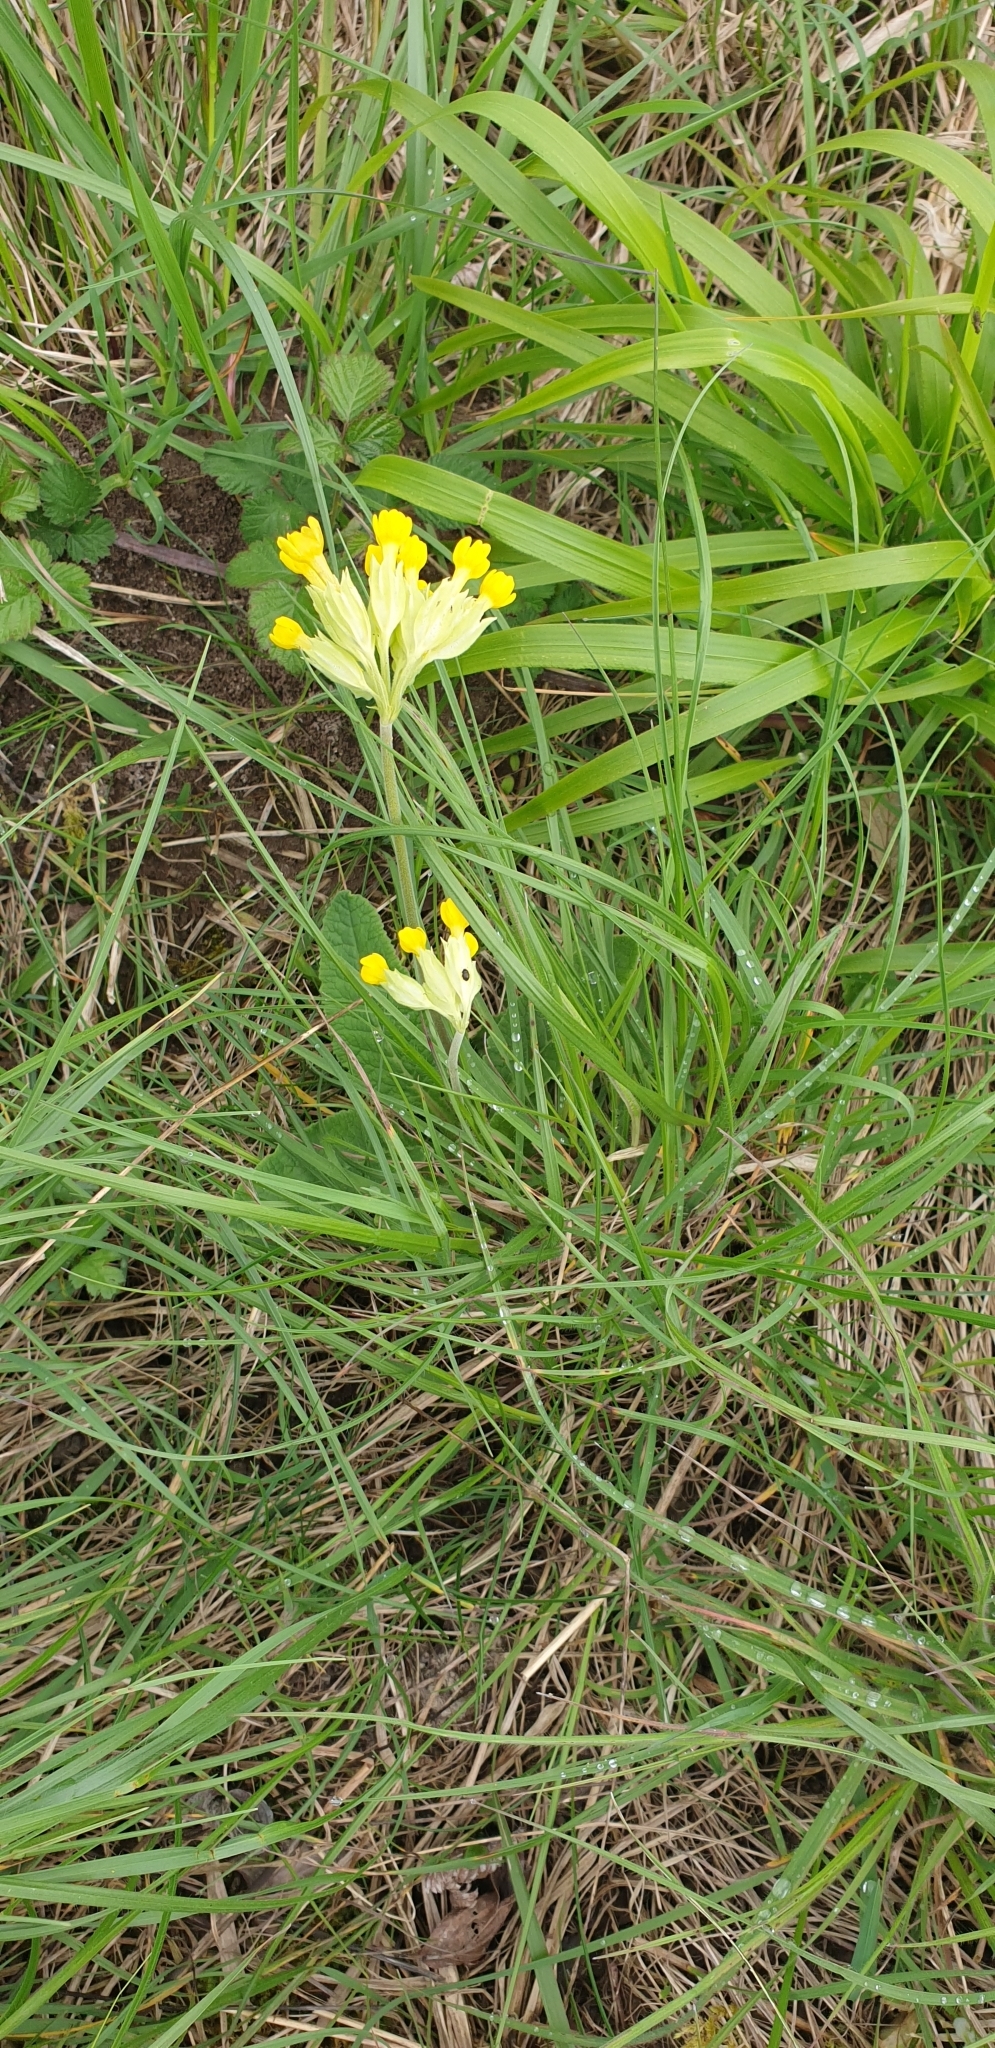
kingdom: Plantae
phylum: Tracheophyta
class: Magnoliopsida
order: Ericales
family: Primulaceae
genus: Primula
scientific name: Primula veris
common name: Cowslip
